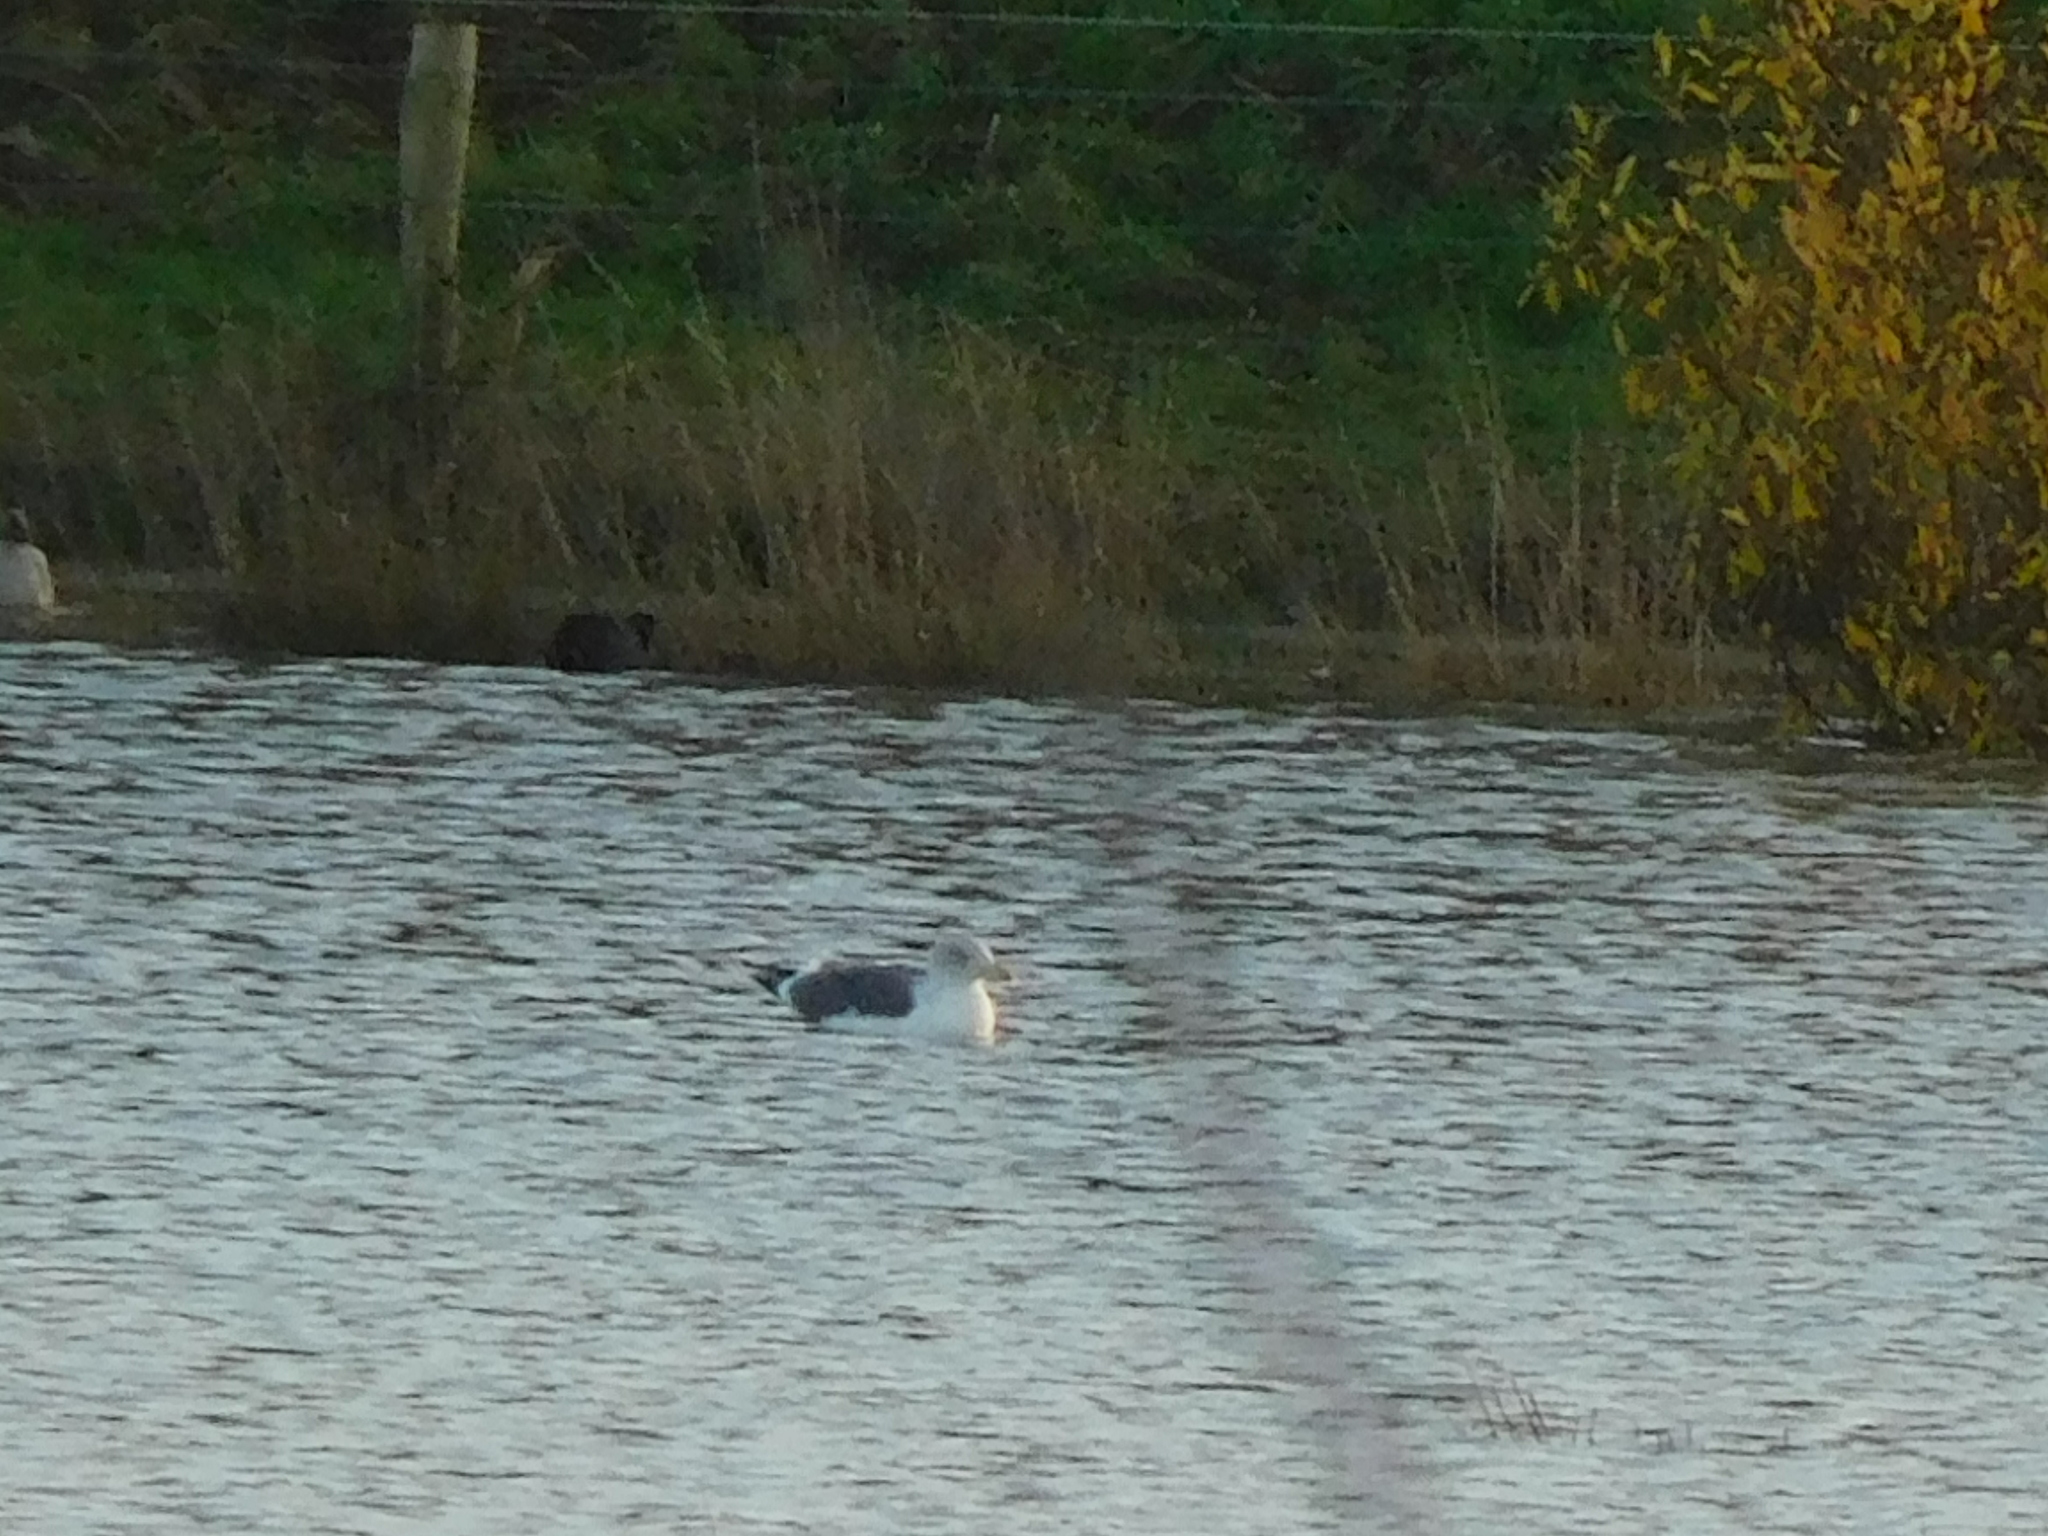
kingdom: Animalia
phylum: Chordata
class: Aves
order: Charadriiformes
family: Laridae
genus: Larus
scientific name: Larus fuscus
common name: Lesser black-backed gull
